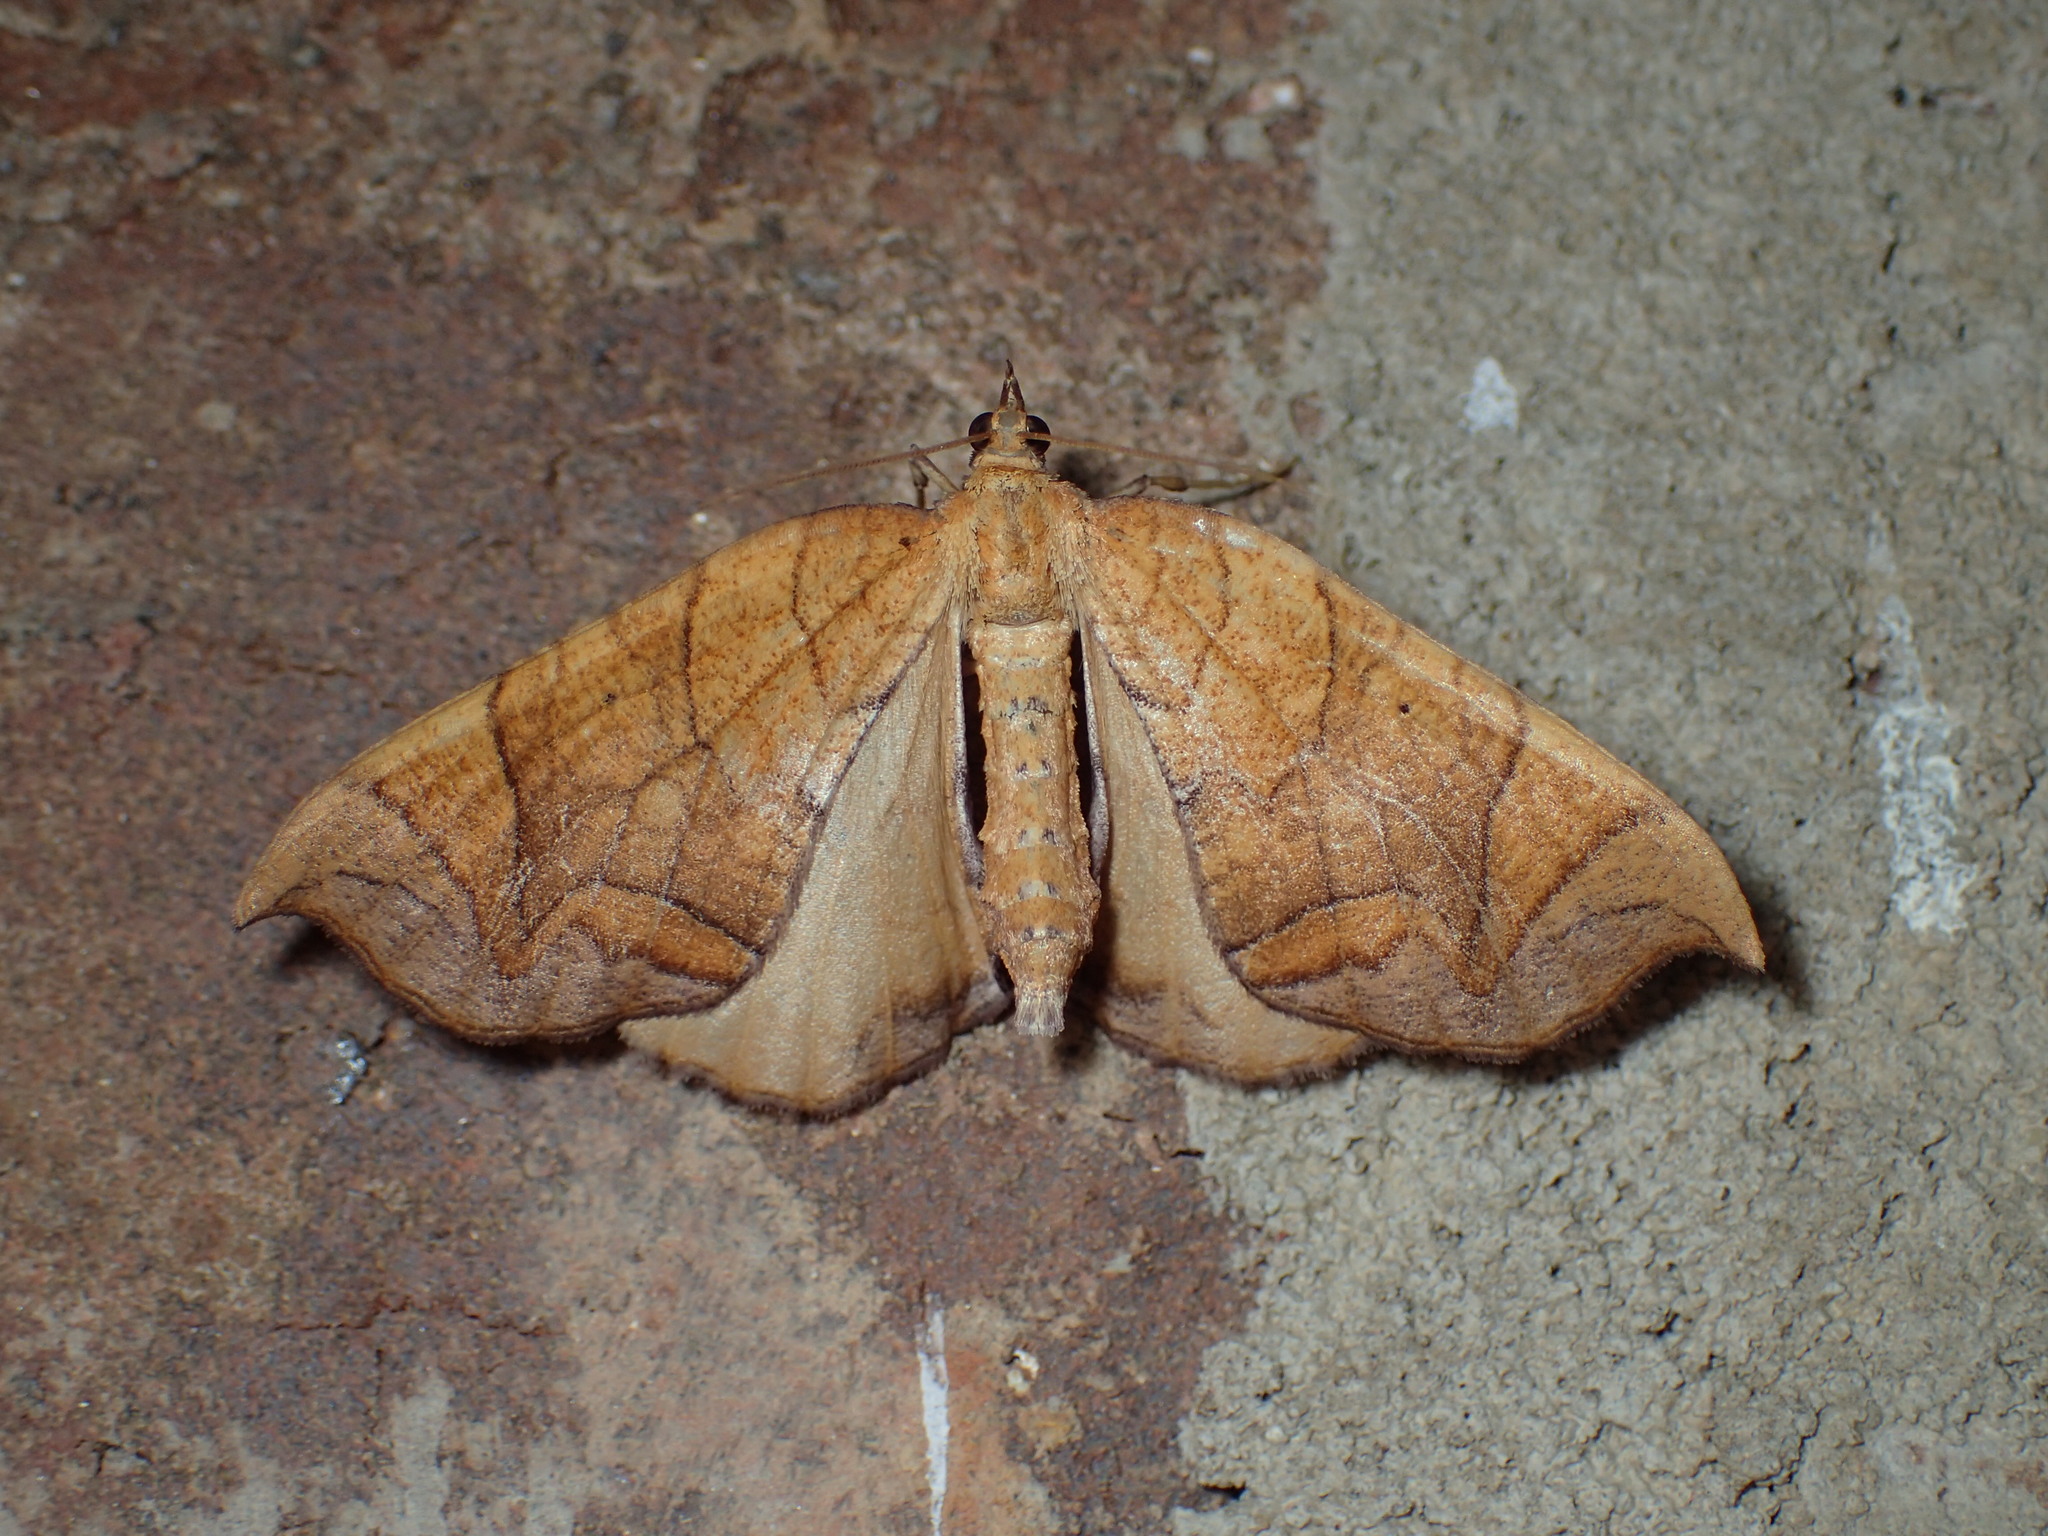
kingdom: Animalia
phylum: Arthropoda
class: Insecta
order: Lepidoptera
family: Geometridae
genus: Eulithis
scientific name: Eulithis
